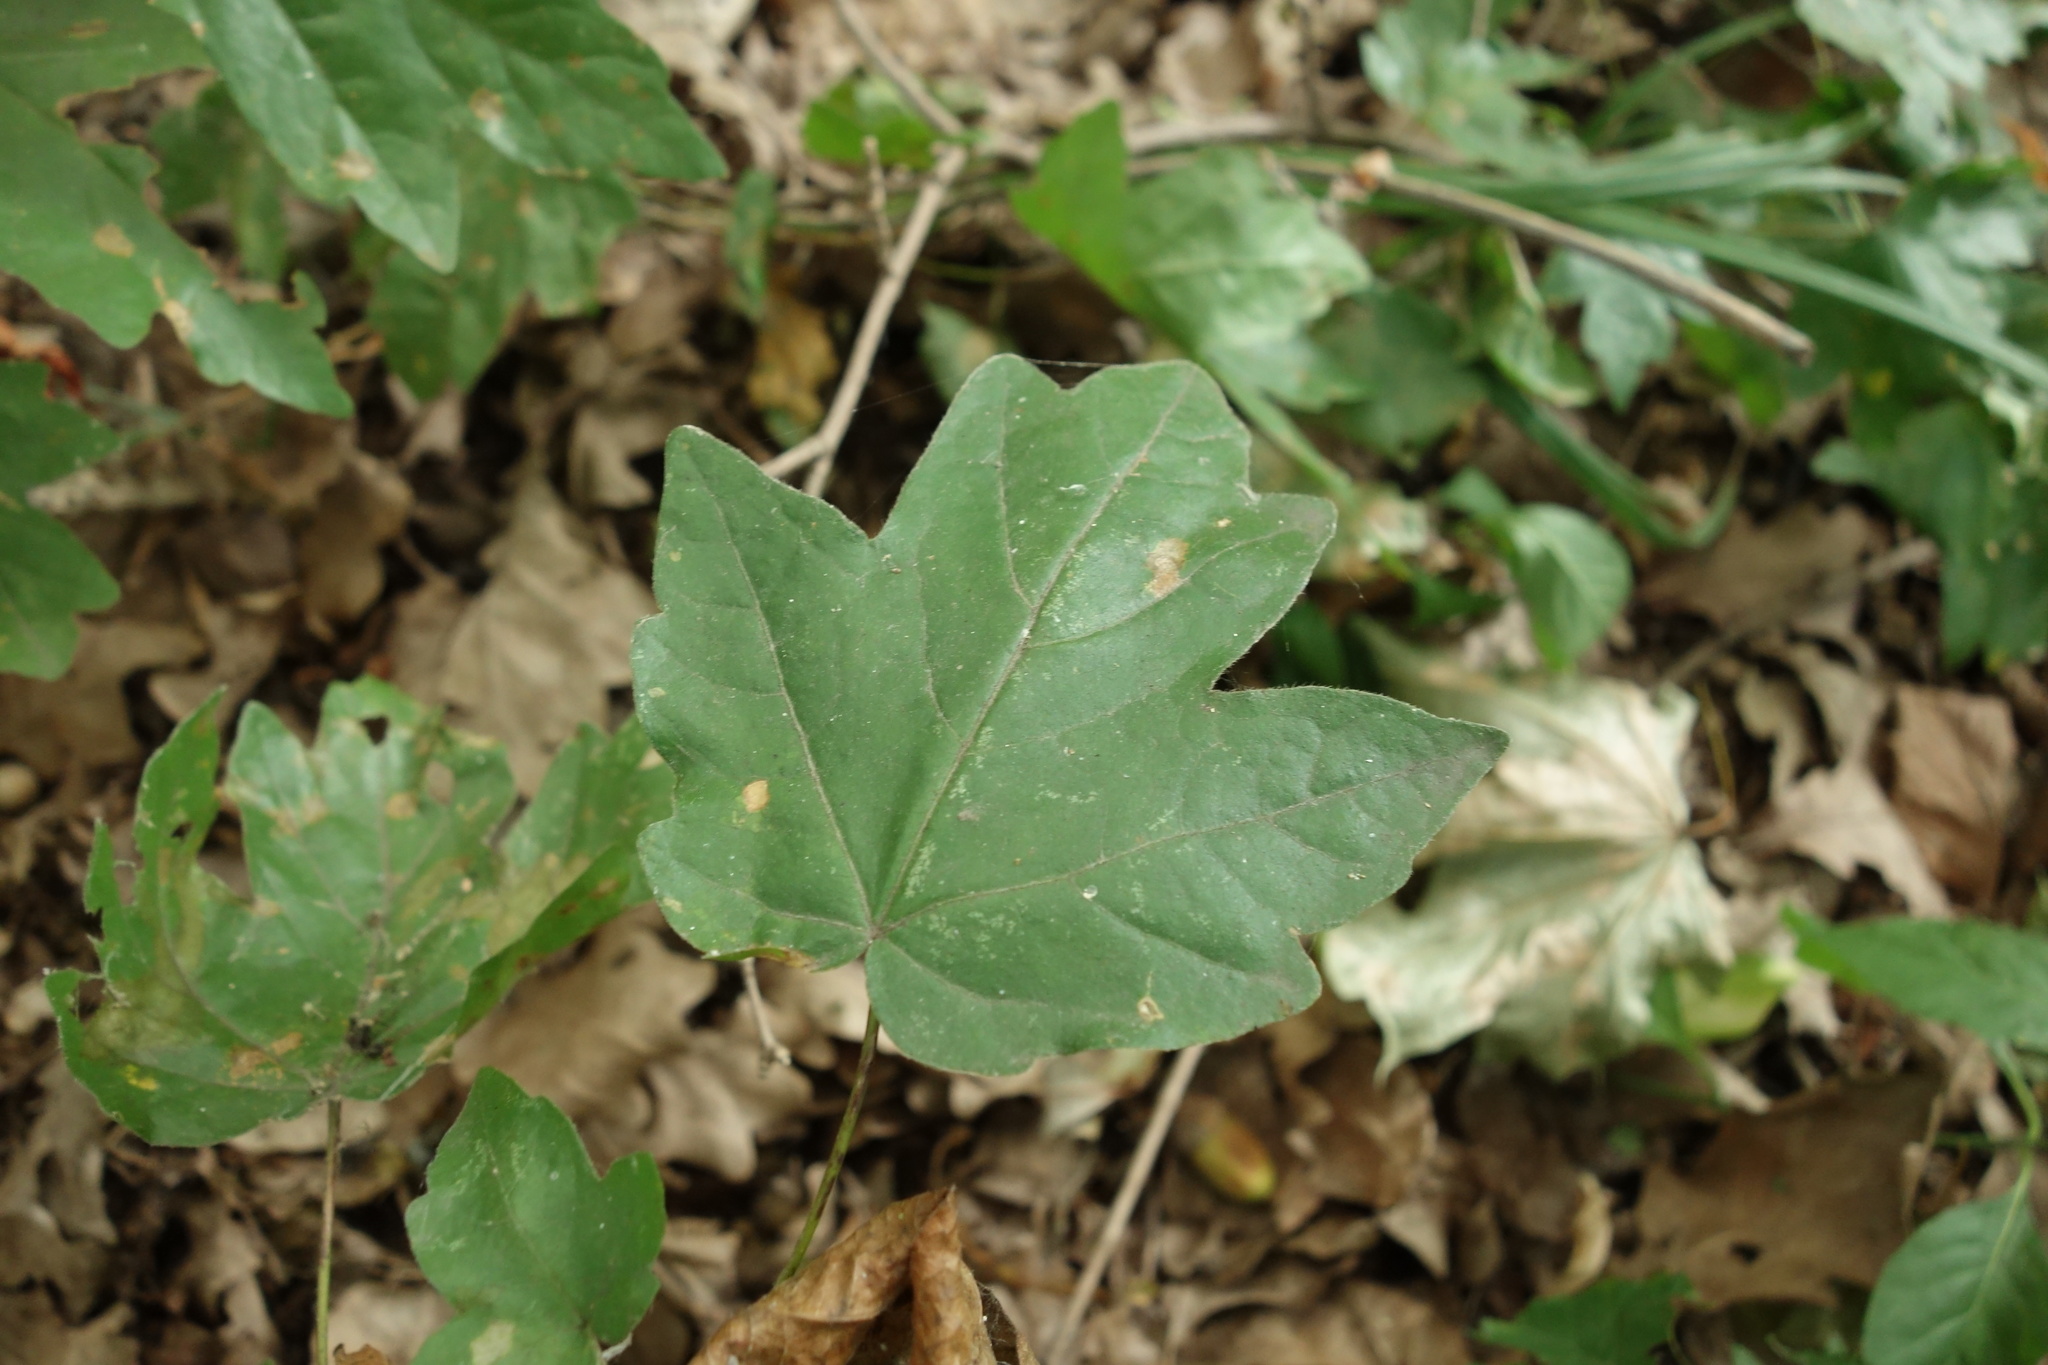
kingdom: Plantae
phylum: Tracheophyta
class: Magnoliopsida
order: Sapindales
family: Sapindaceae
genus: Acer
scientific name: Acer campestre
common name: Field maple
